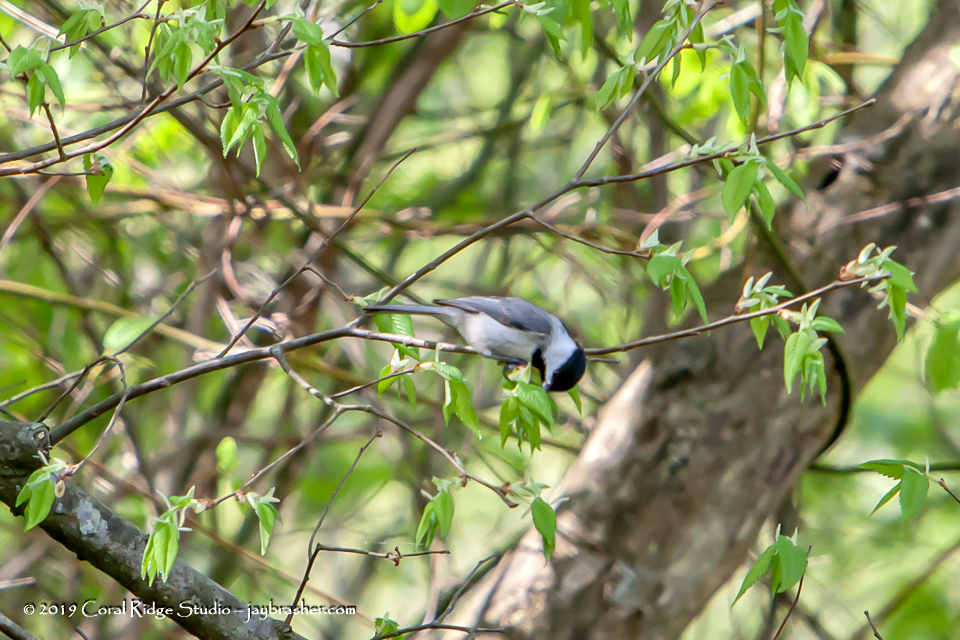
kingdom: Animalia
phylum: Chordata
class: Aves
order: Passeriformes
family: Paridae
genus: Poecile
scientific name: Poecile carolinensis
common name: Carolina chickadee
